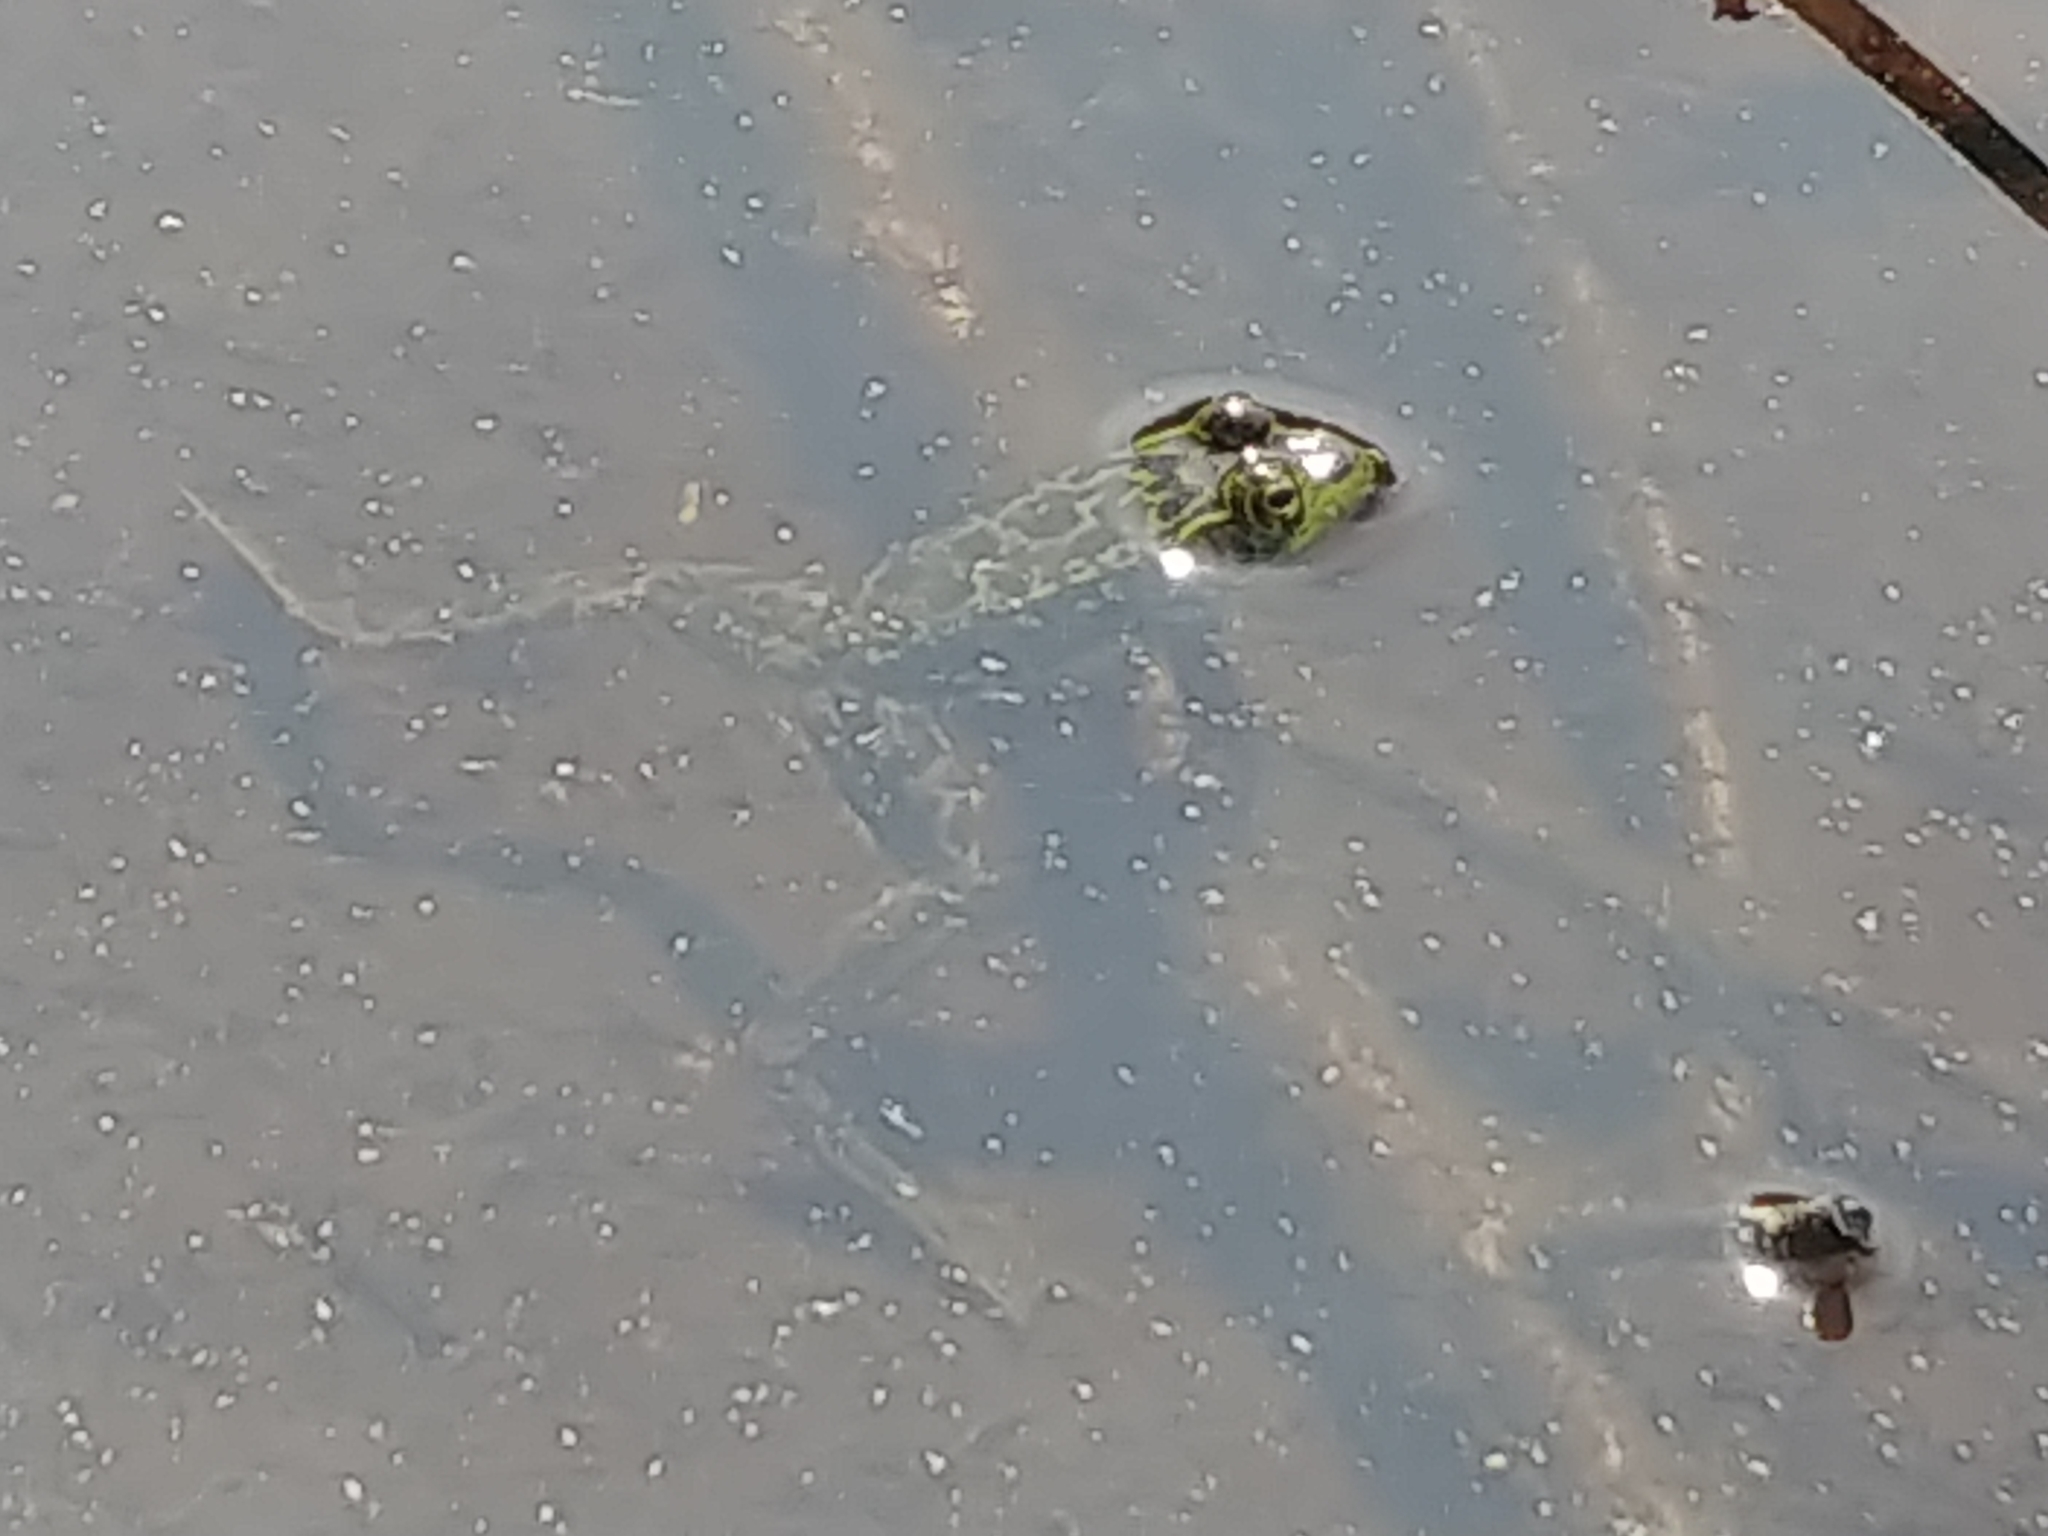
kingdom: Animalia
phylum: Chordata
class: Amphibia
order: Anura
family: Ranidae
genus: Lithobates
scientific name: Lithobates septentrionalis
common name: Mink frog
